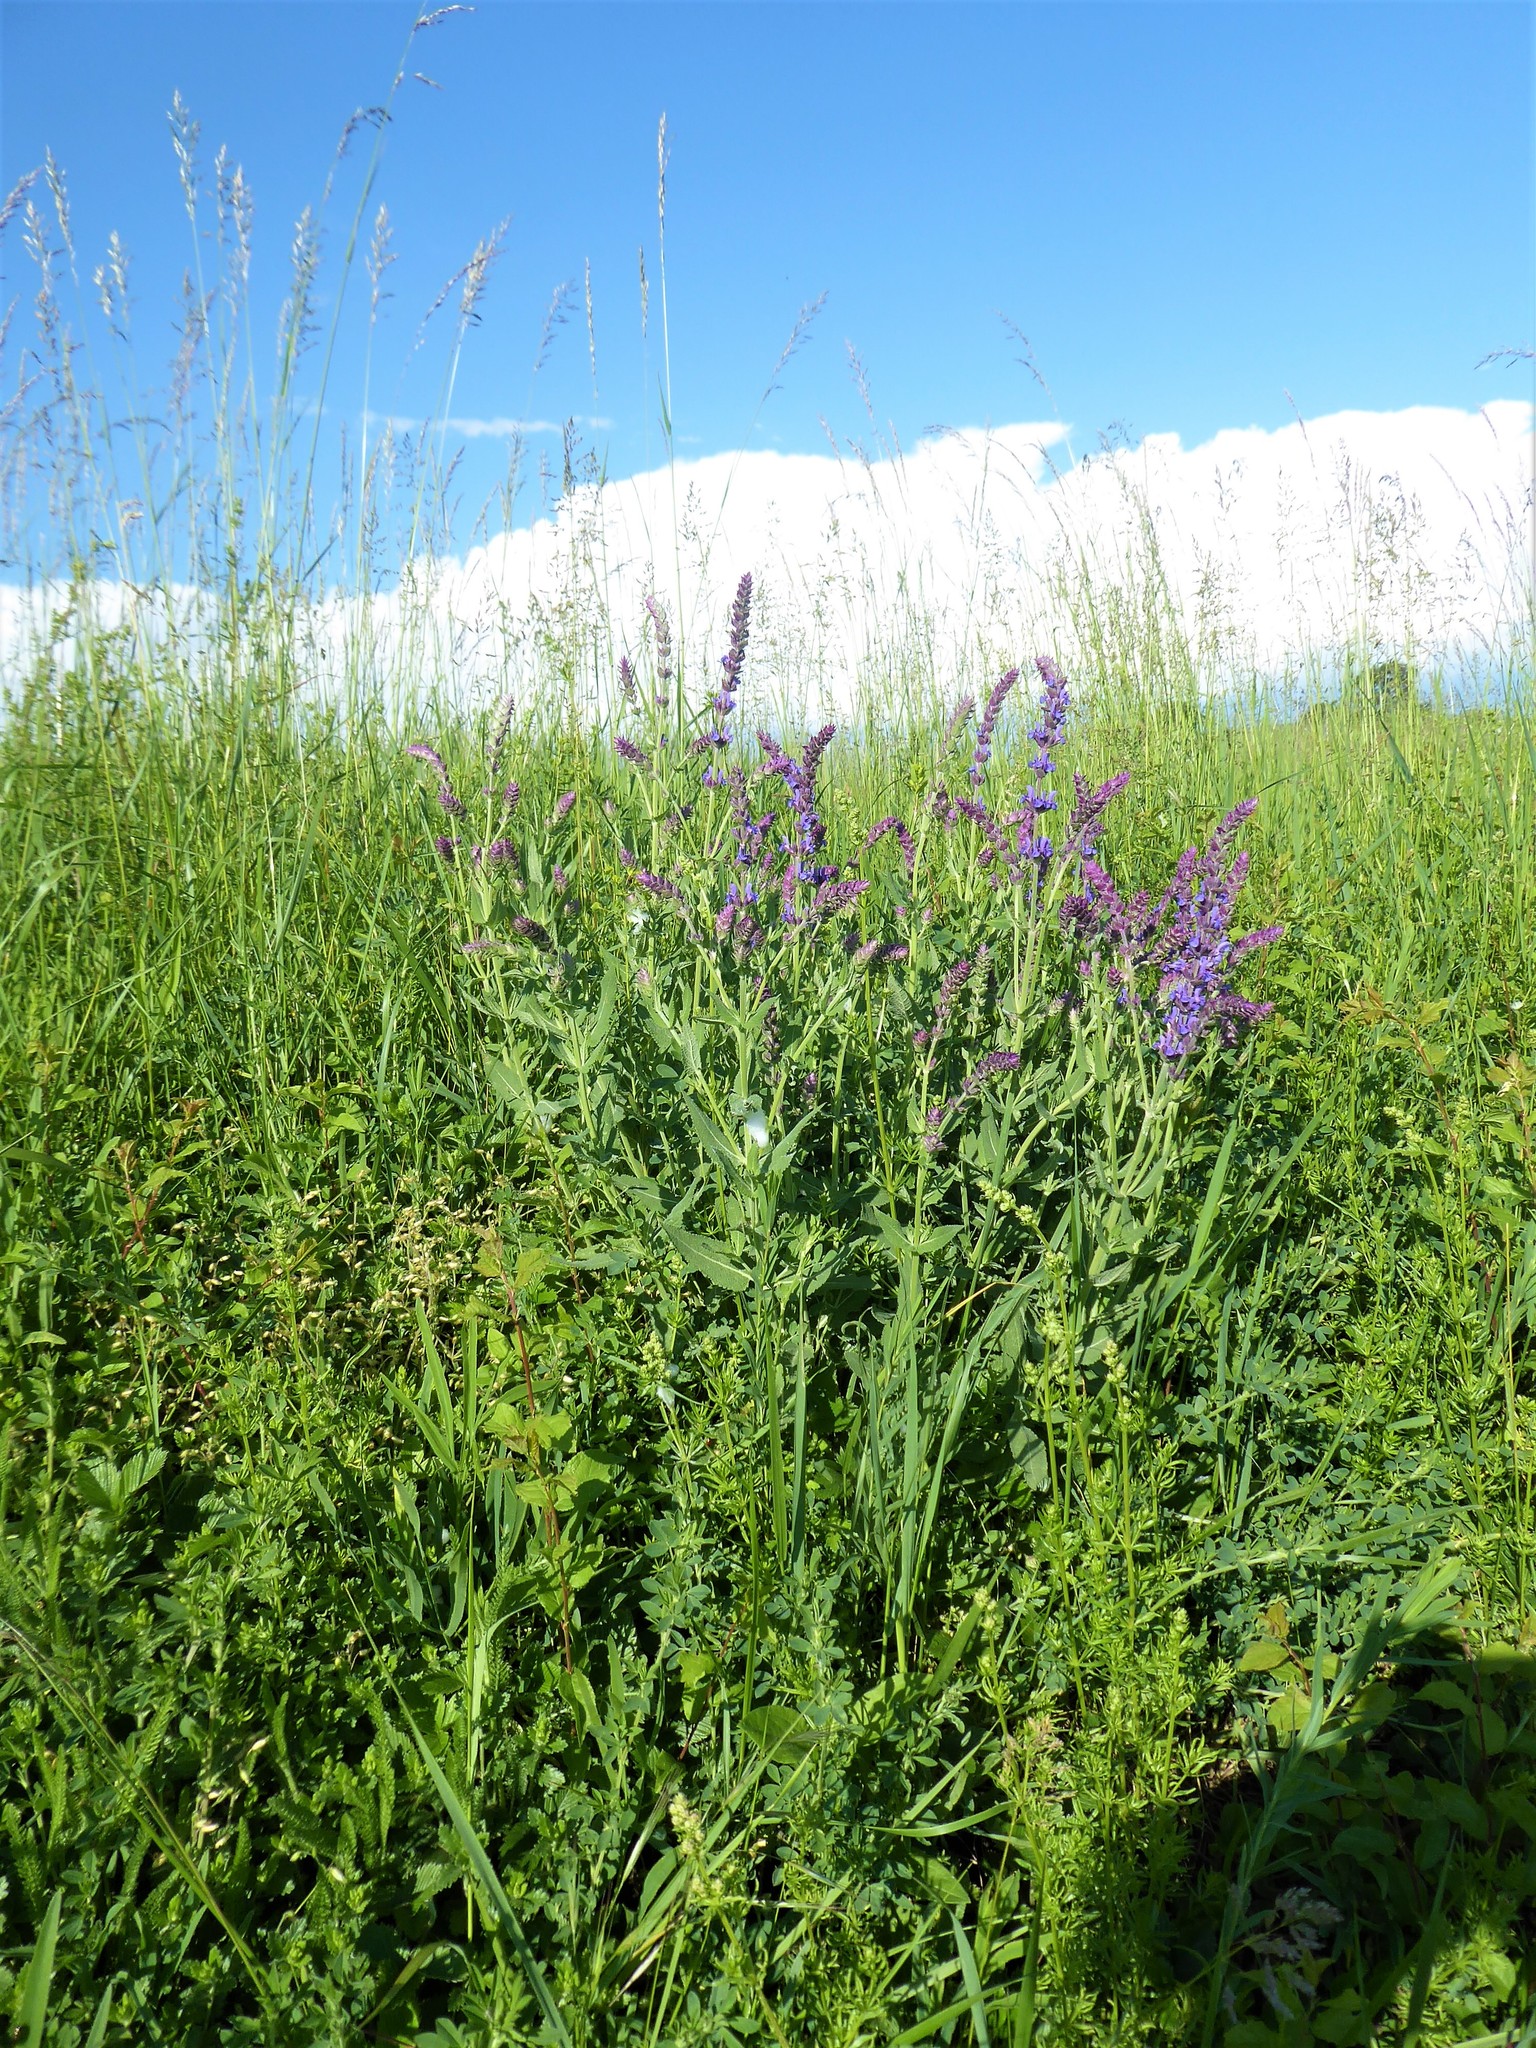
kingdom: Plantae
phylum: Tracheophyta
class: Magnoliopsida
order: Lamiales
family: Lamiaceae
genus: Salvia
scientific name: Salvia nemorosa
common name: Balkan clary
